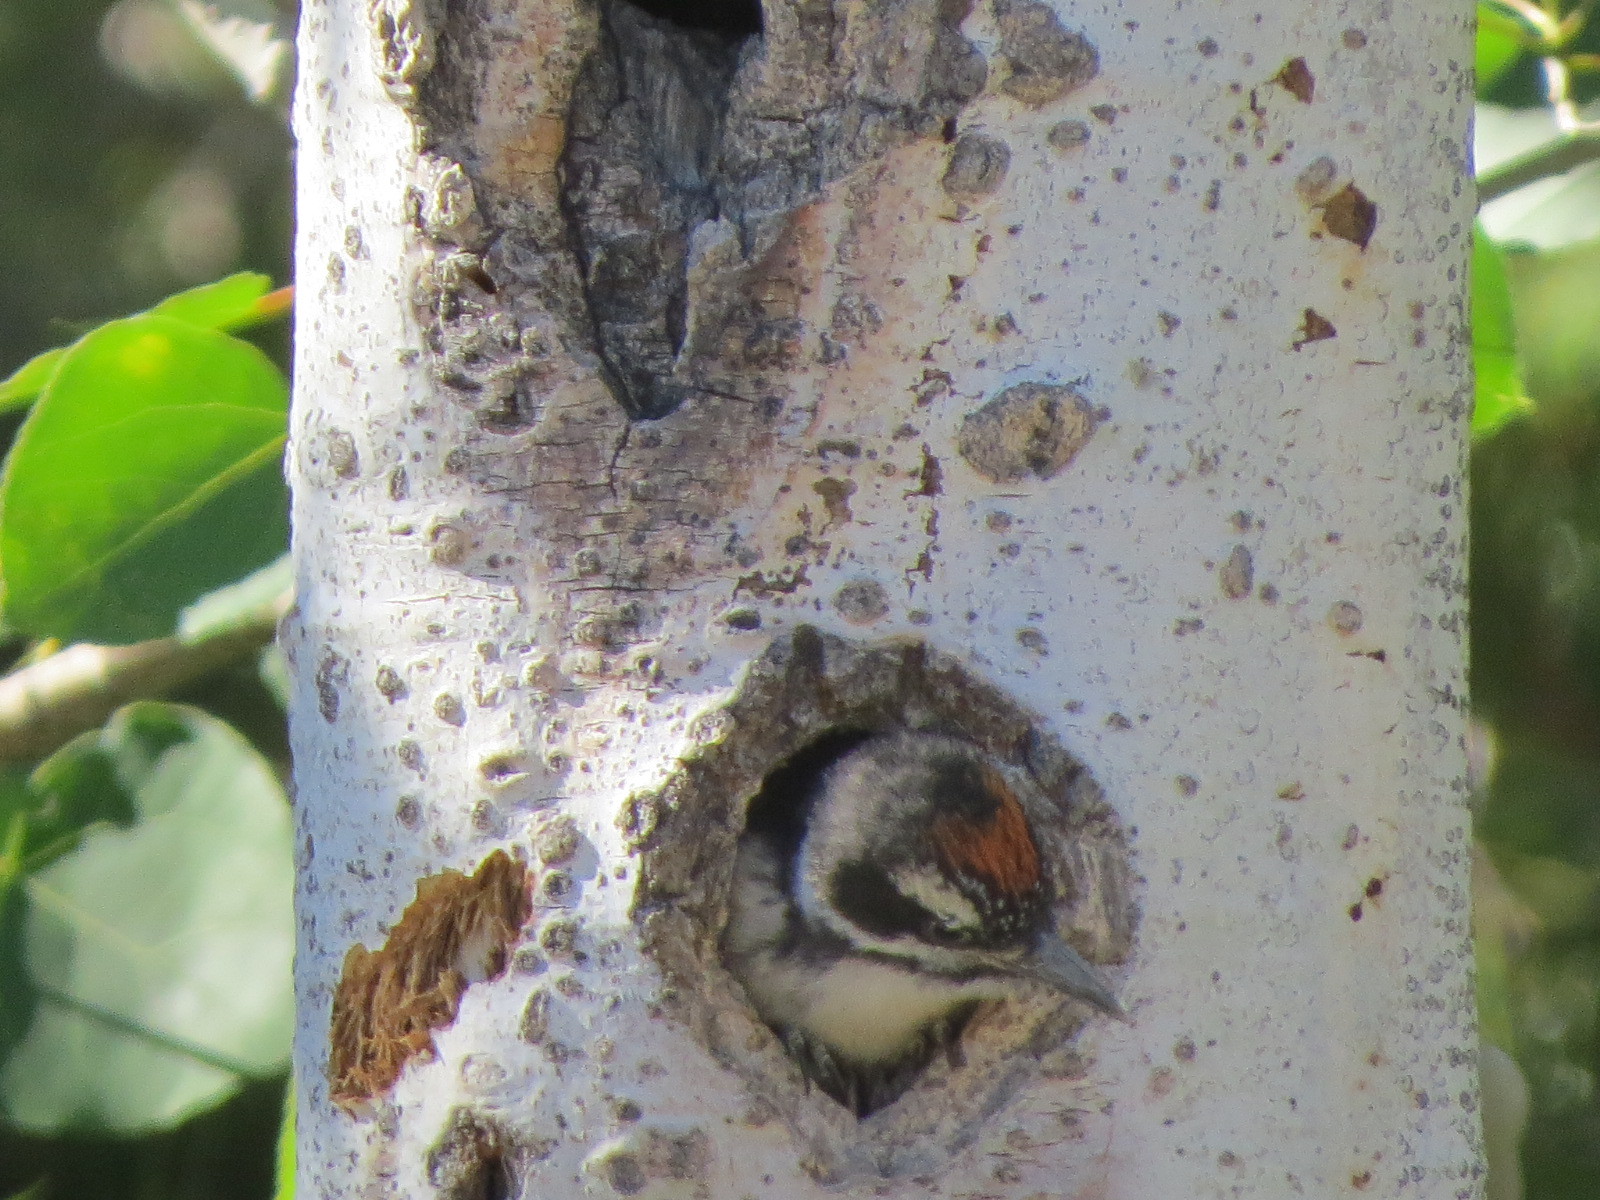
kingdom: Animalia
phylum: Chordata
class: Aves
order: Piciformes
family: Picidae
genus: Leuconotopicus
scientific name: Leuconotopicus villosus
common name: Hairy woodpecker
